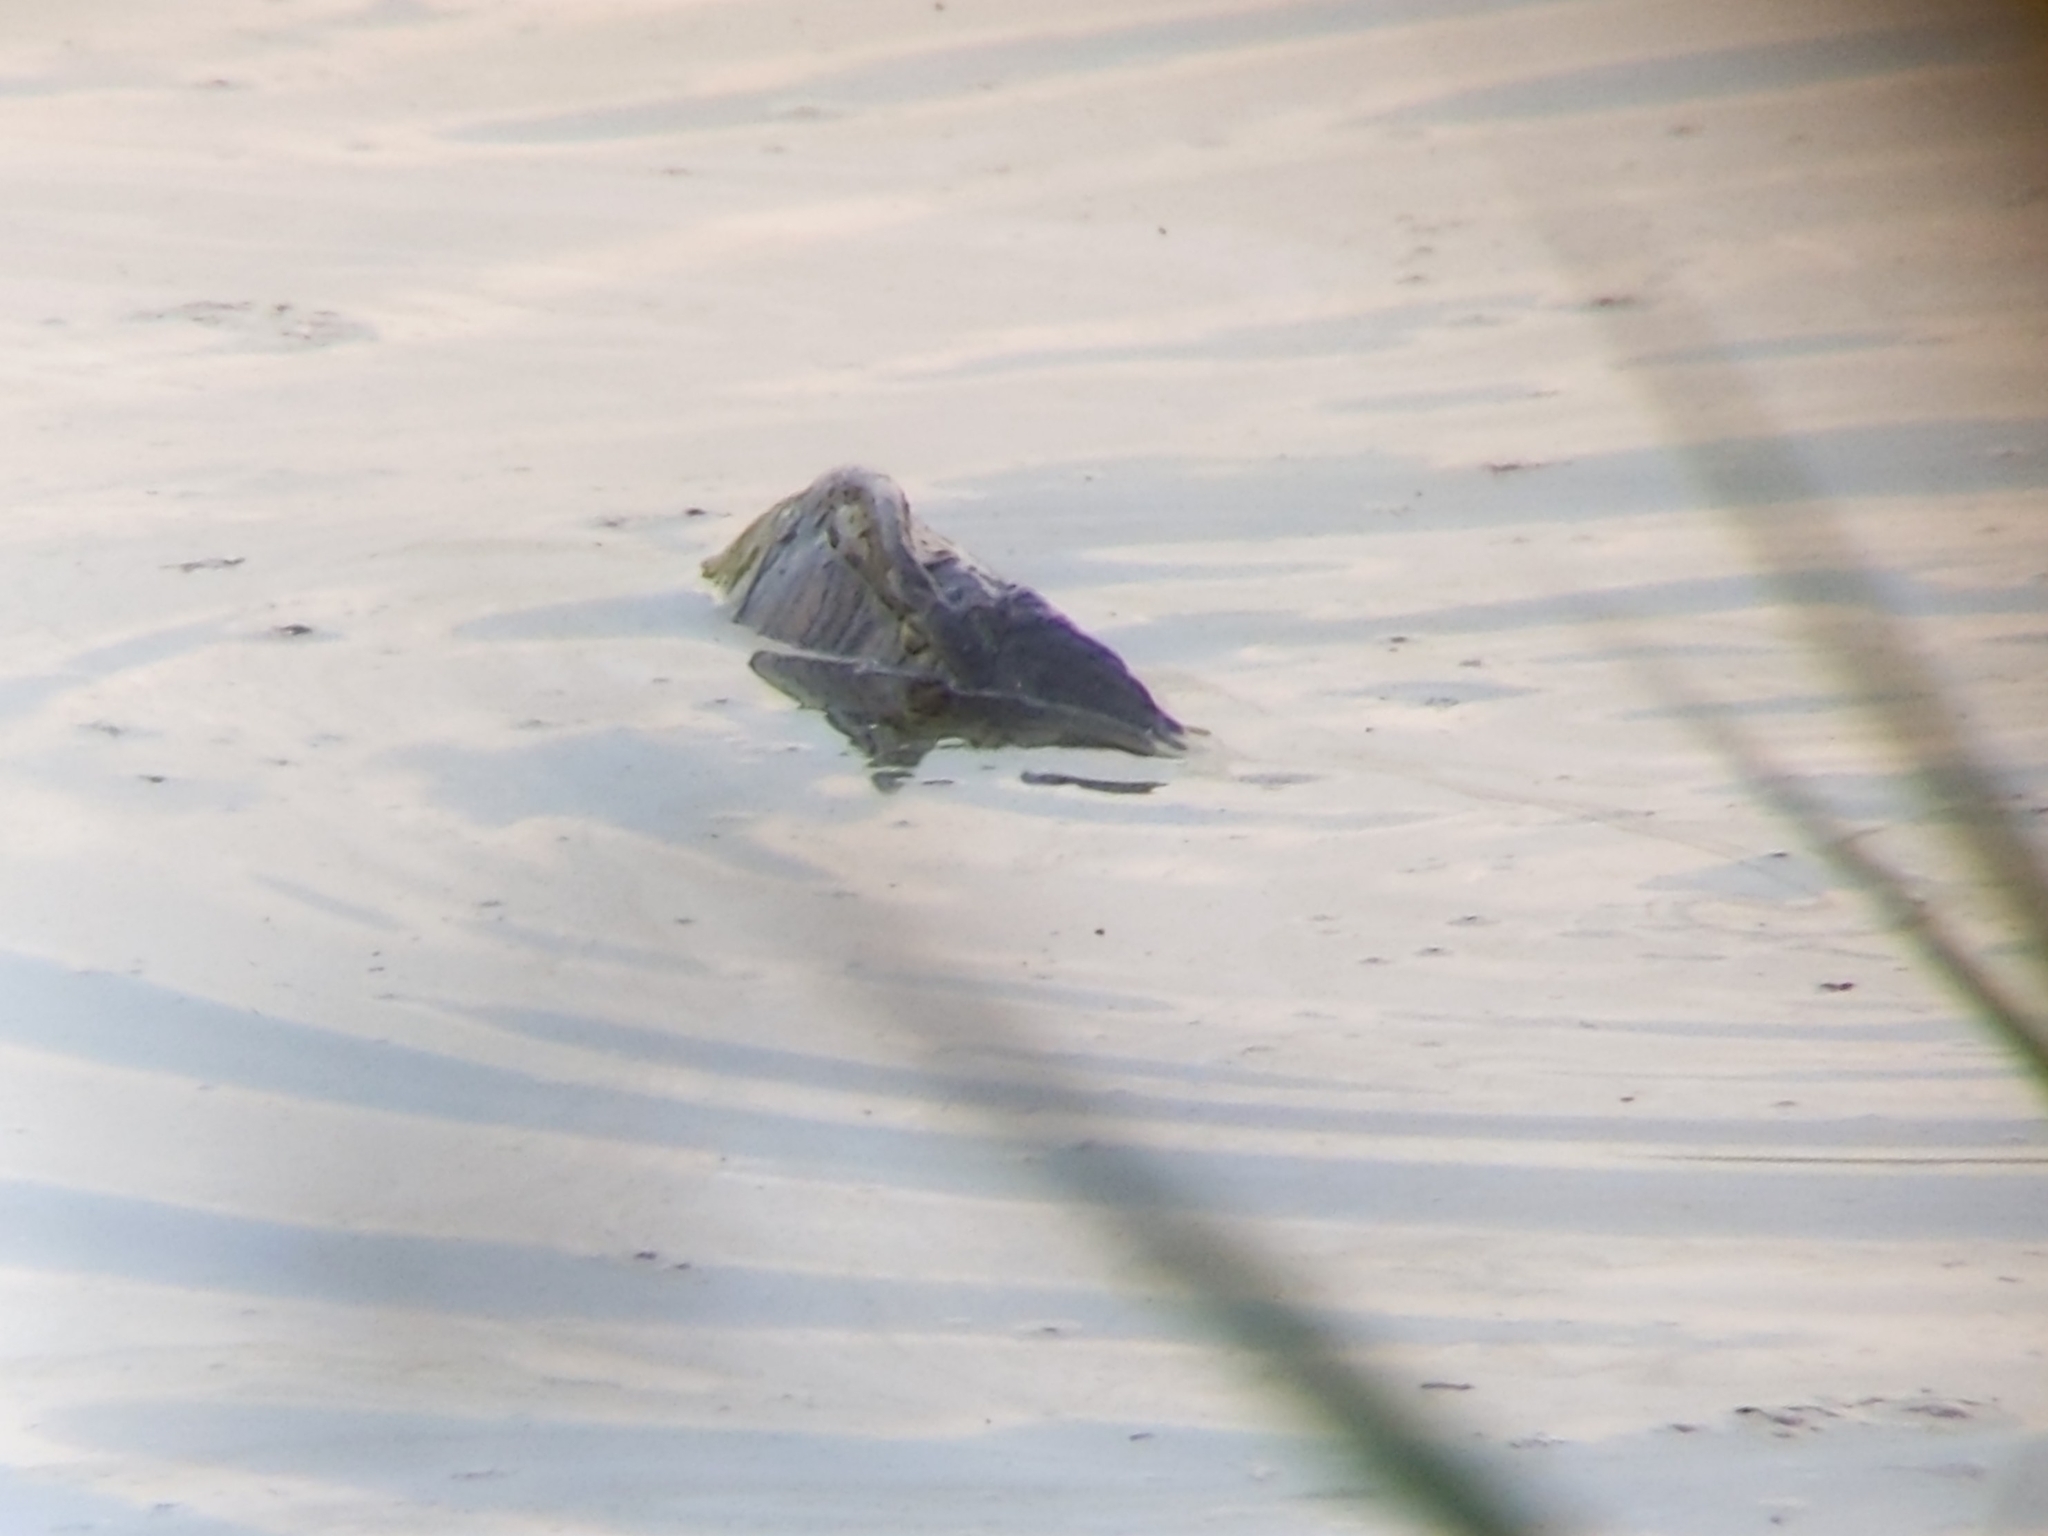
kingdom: Animalia
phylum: Chordata
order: Cypriniformes
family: Cyprinidae
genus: Cyprinus
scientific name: Cyprinus carpio
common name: Common carp
